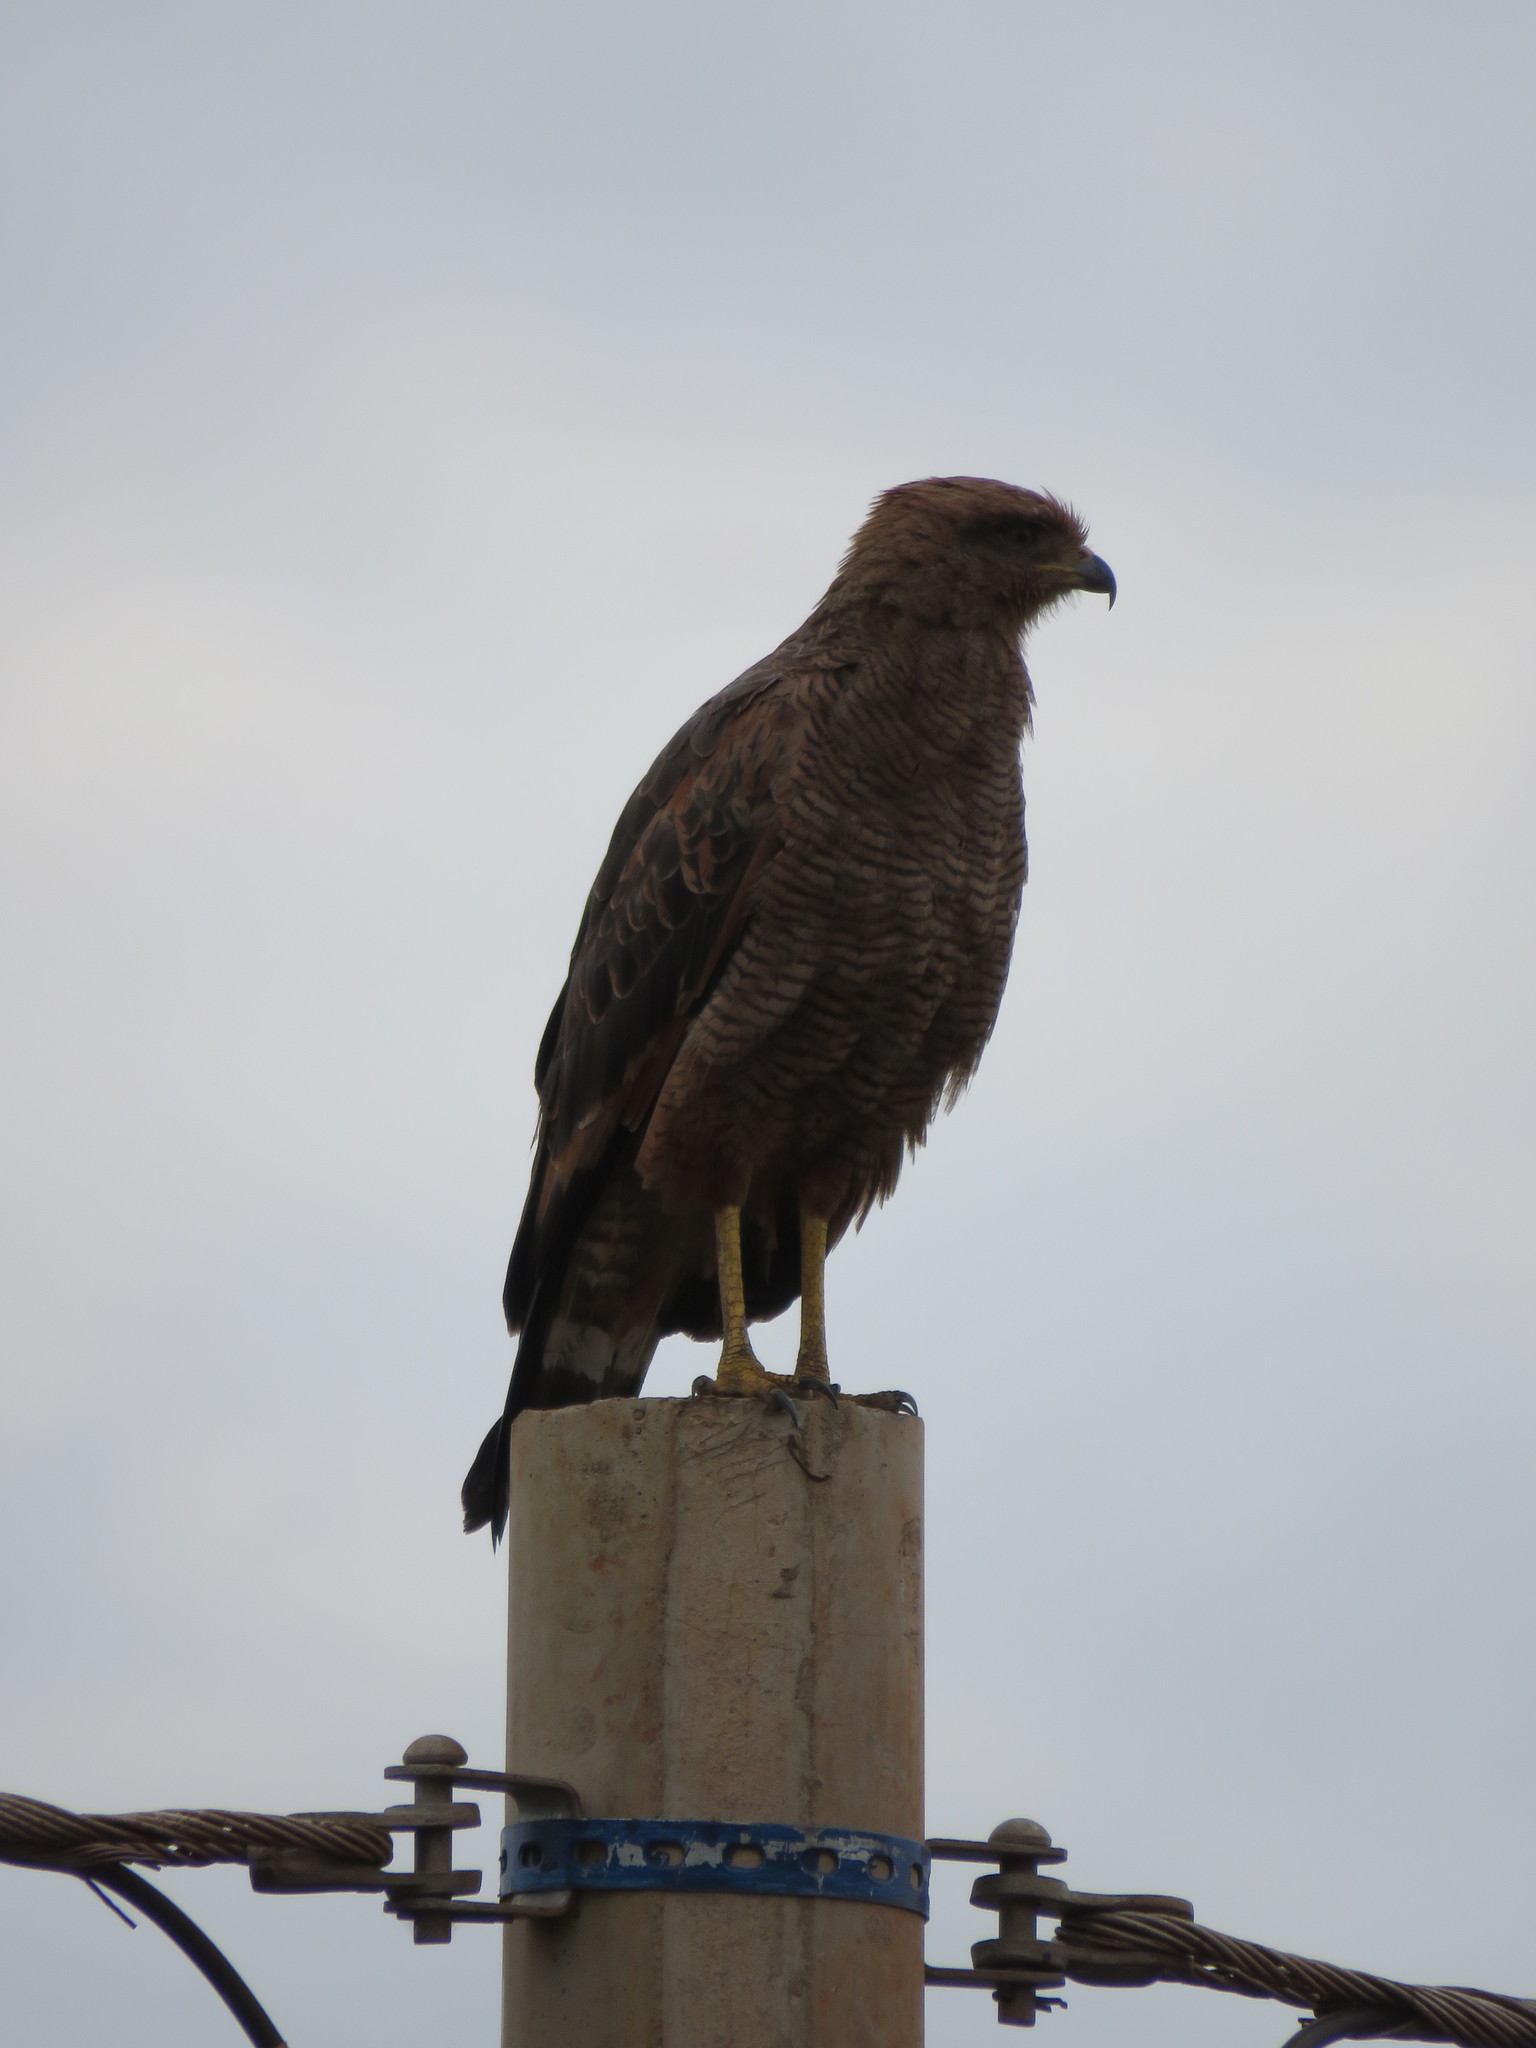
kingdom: Animalia
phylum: Chordata
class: Aves
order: Accipitriformes
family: Accipitridae
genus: Buteogallus
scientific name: Buteogallus meridionalis
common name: Savanna hawk
